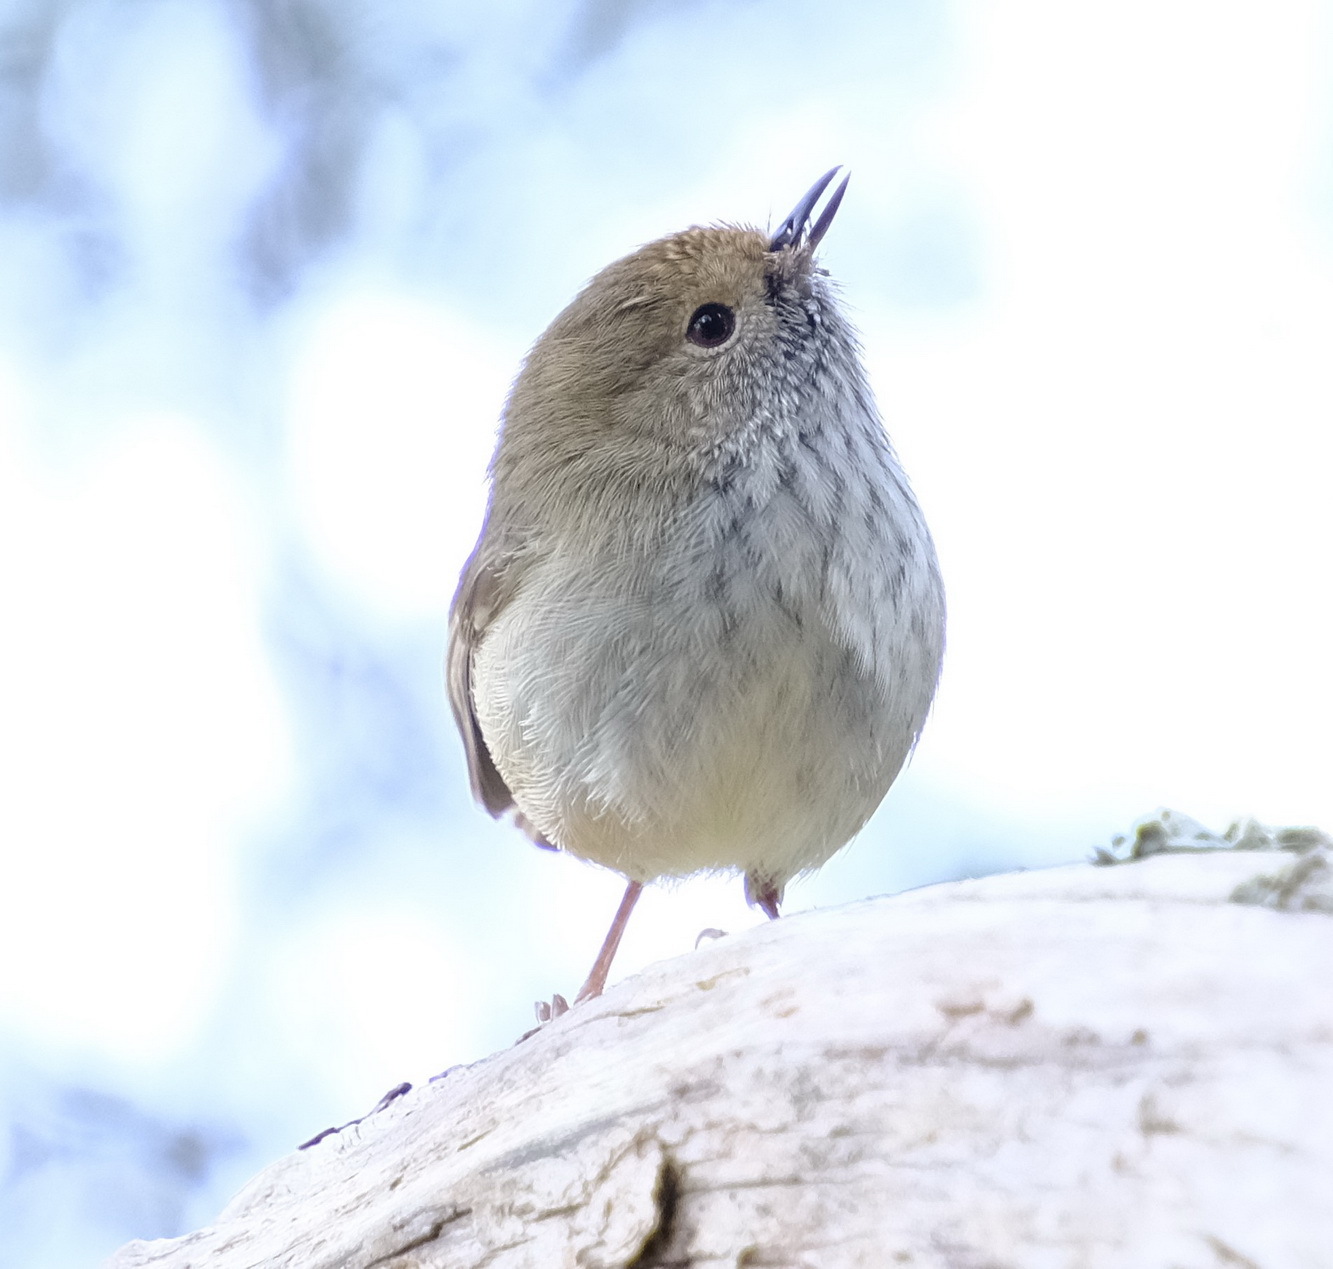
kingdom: Animalia
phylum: Chordata
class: Aves
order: Passeriformes
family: Acanthizidae
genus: Acanthiza
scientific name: Acanthiza pusilla
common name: Brown thornbill
